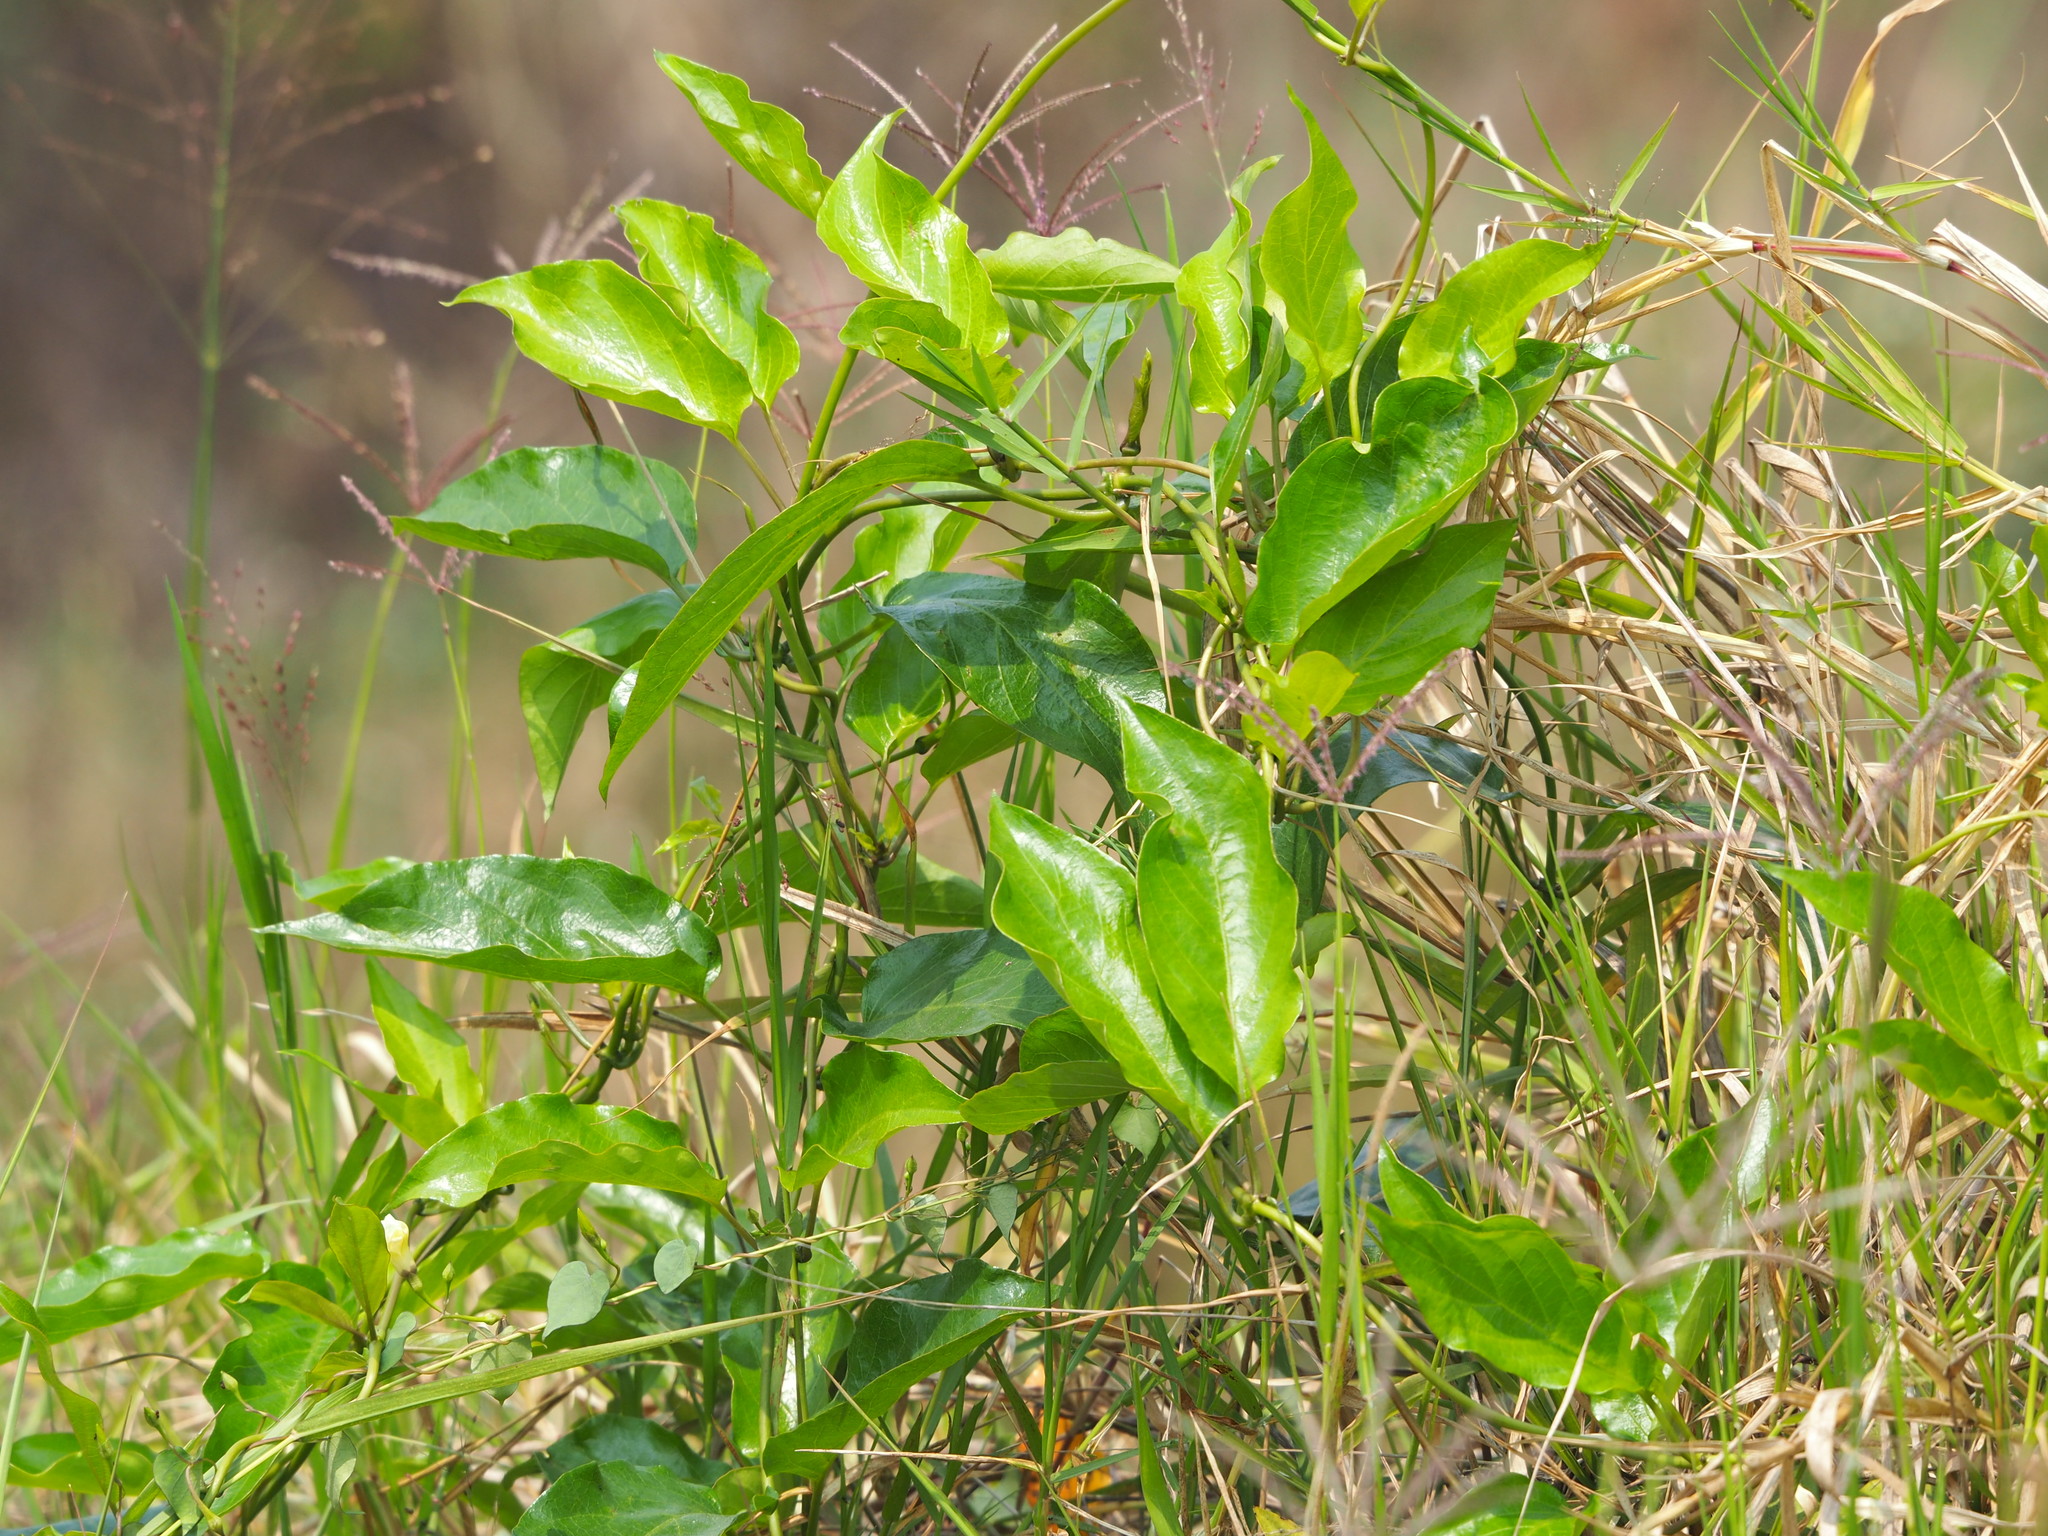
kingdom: Plantae
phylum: Tracheophyta
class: Magnoliopsida
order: Gentianales
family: Rubiaceae
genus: Paederia
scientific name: Paederia foetida
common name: Stinkvine
